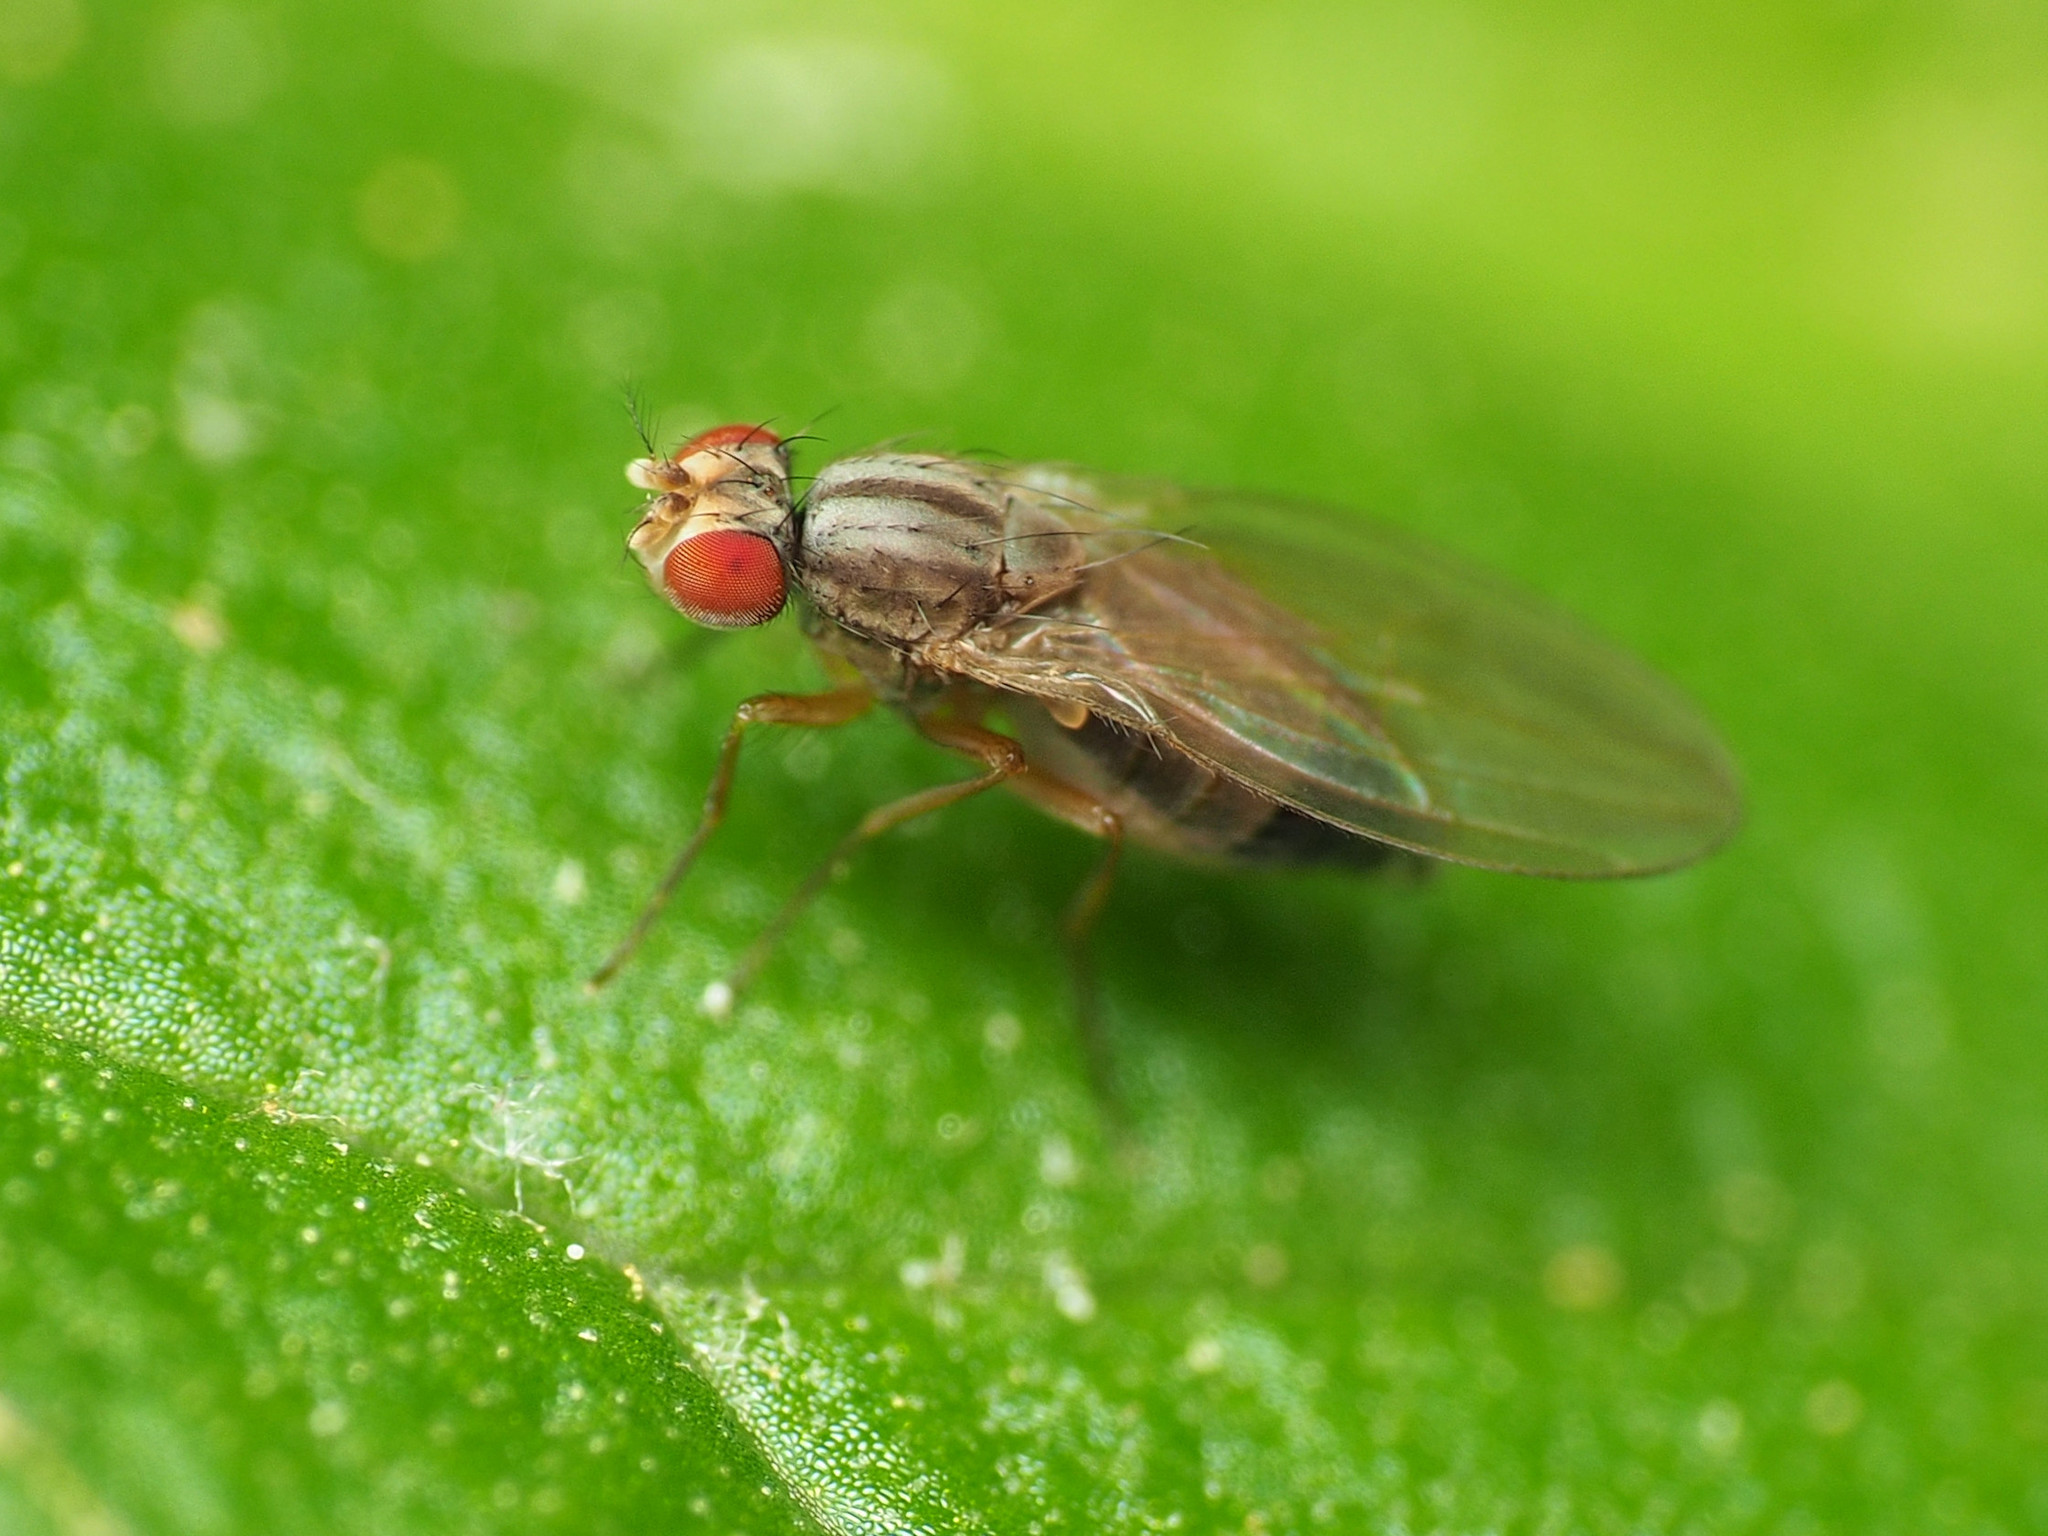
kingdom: Animalia
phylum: Arthropoda
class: Insecta
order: Diptera
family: Drosophilidae
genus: Scaptomyza
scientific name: Scaptomyza pallida
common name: Pomace fly
